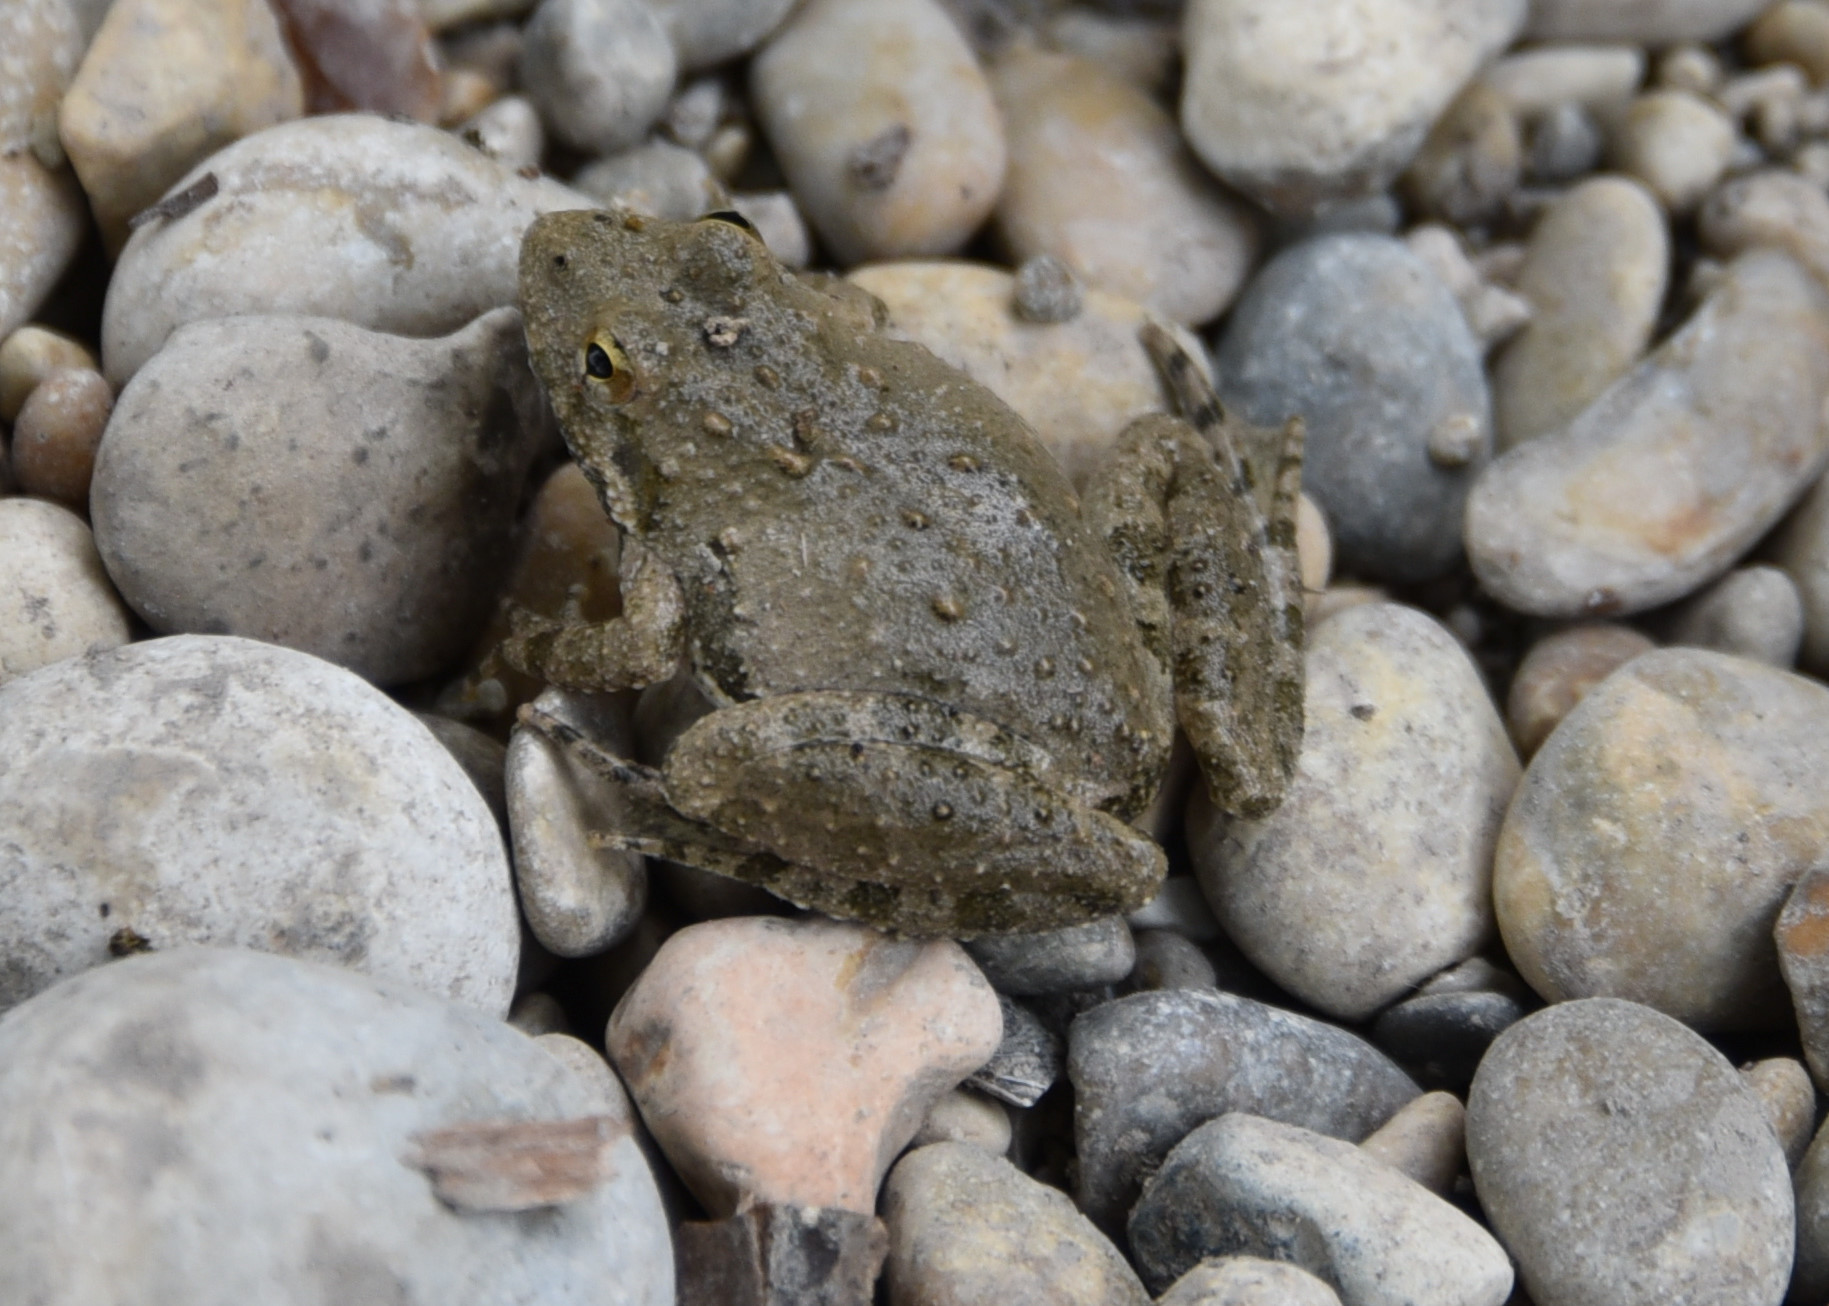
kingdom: Animalia
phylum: Chordata
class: Amphibia
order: Anura
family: Hylidae
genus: Acris
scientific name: Acris blanchardi
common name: Blanchard's cricket frog
